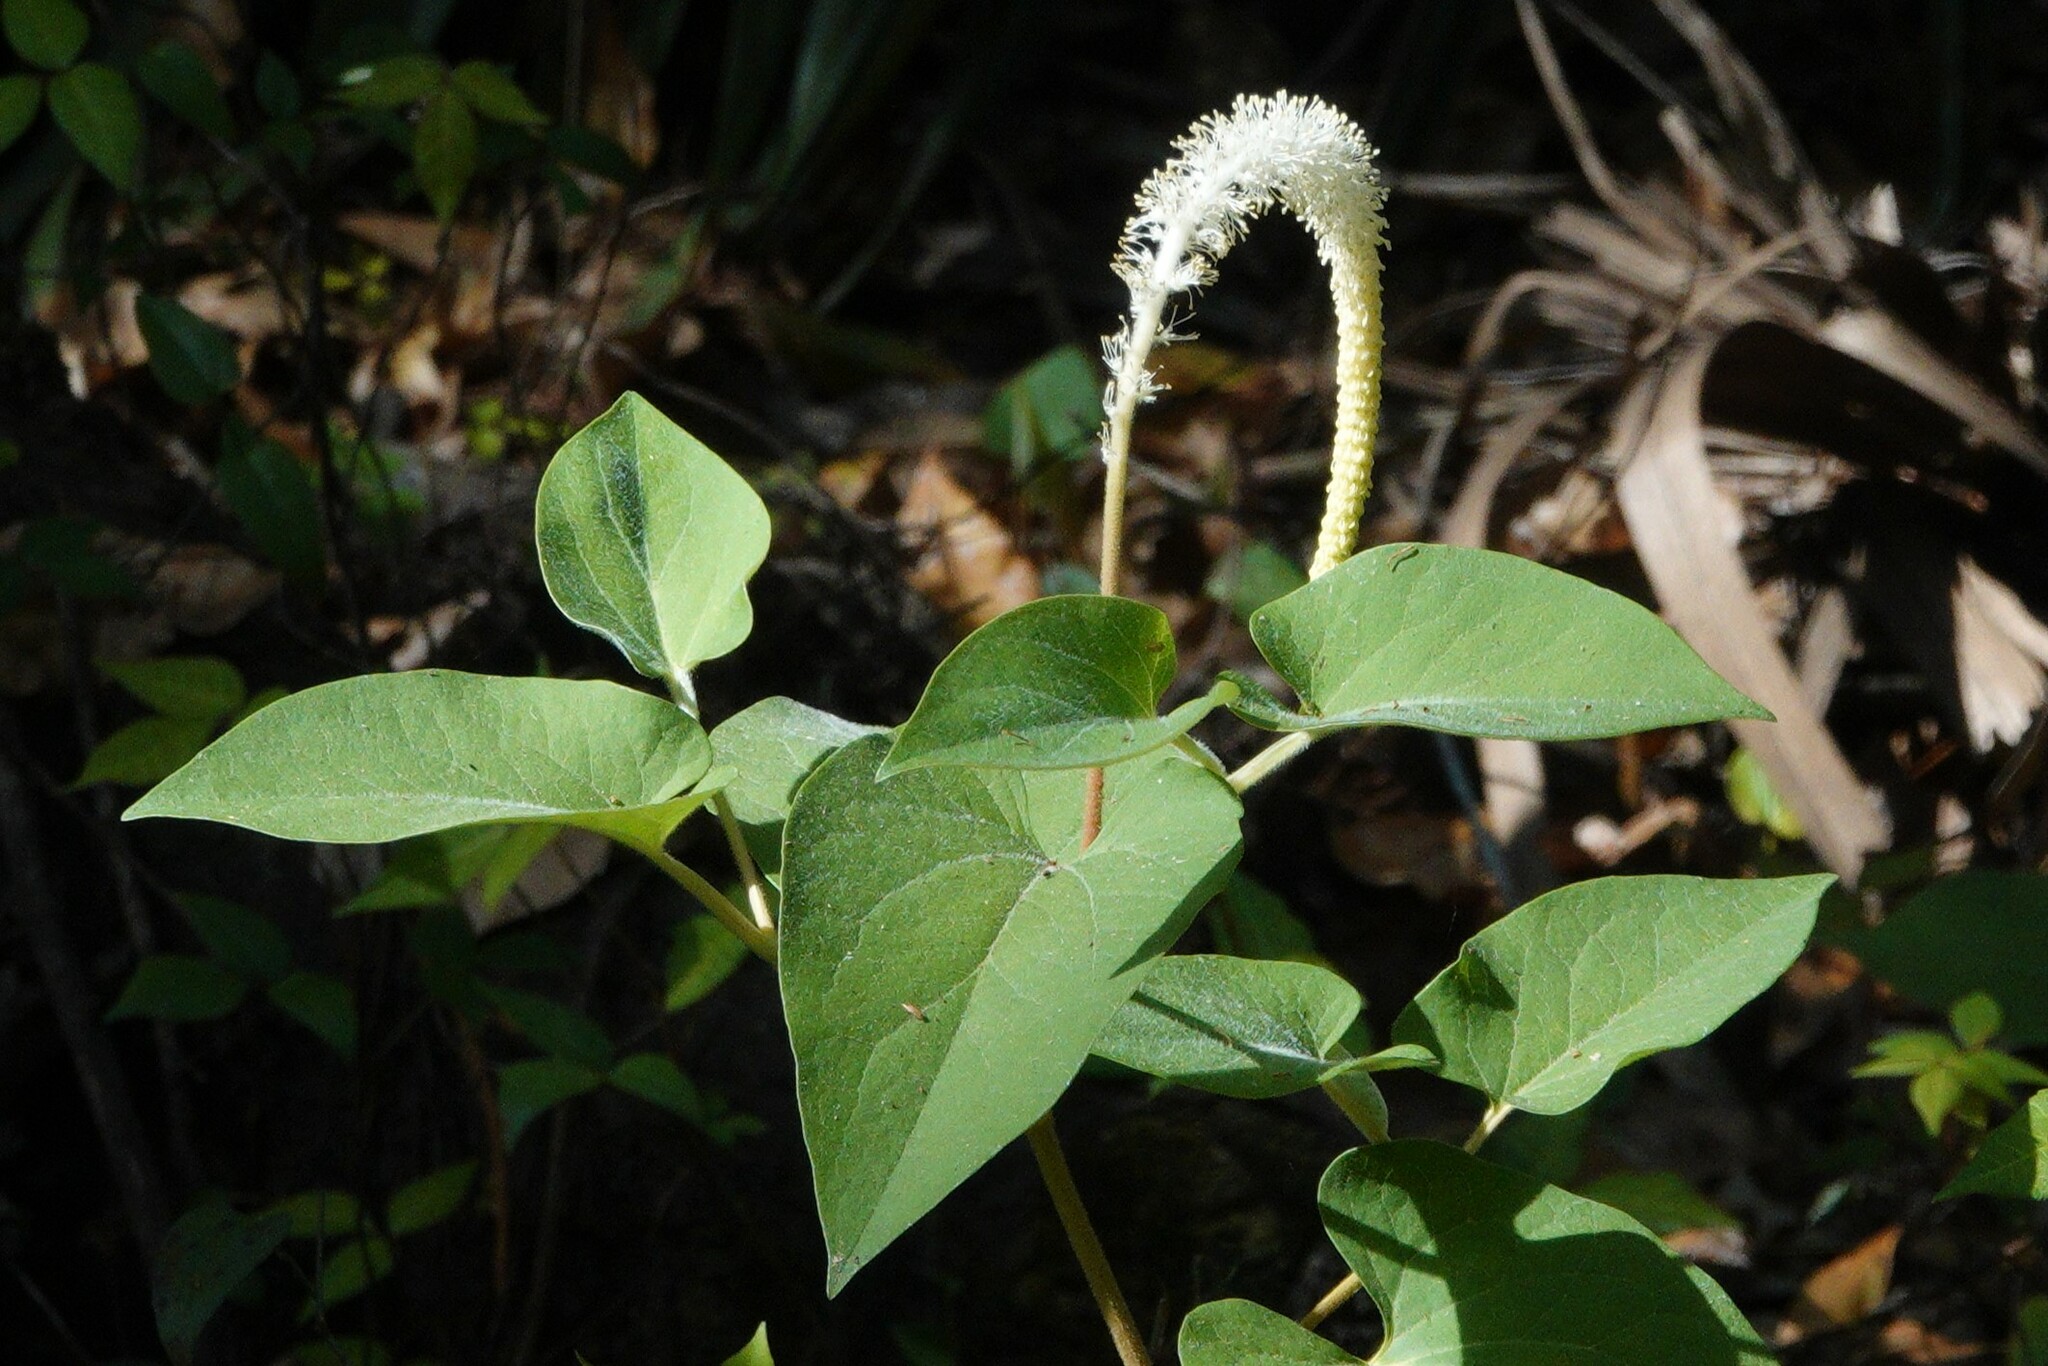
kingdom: Plantae
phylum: Tracheophyta
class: Magnoliopsida
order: Piperales
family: Saururaceae
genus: Saururus
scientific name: Saururus cernuus
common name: Lizard's-tail
